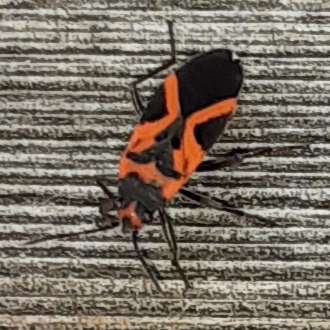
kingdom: Animalia
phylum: Arthropoda
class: Insecta
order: Hemiptera
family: Lygaeidae
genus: Lygaeus
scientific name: Lygaeus turcicus
